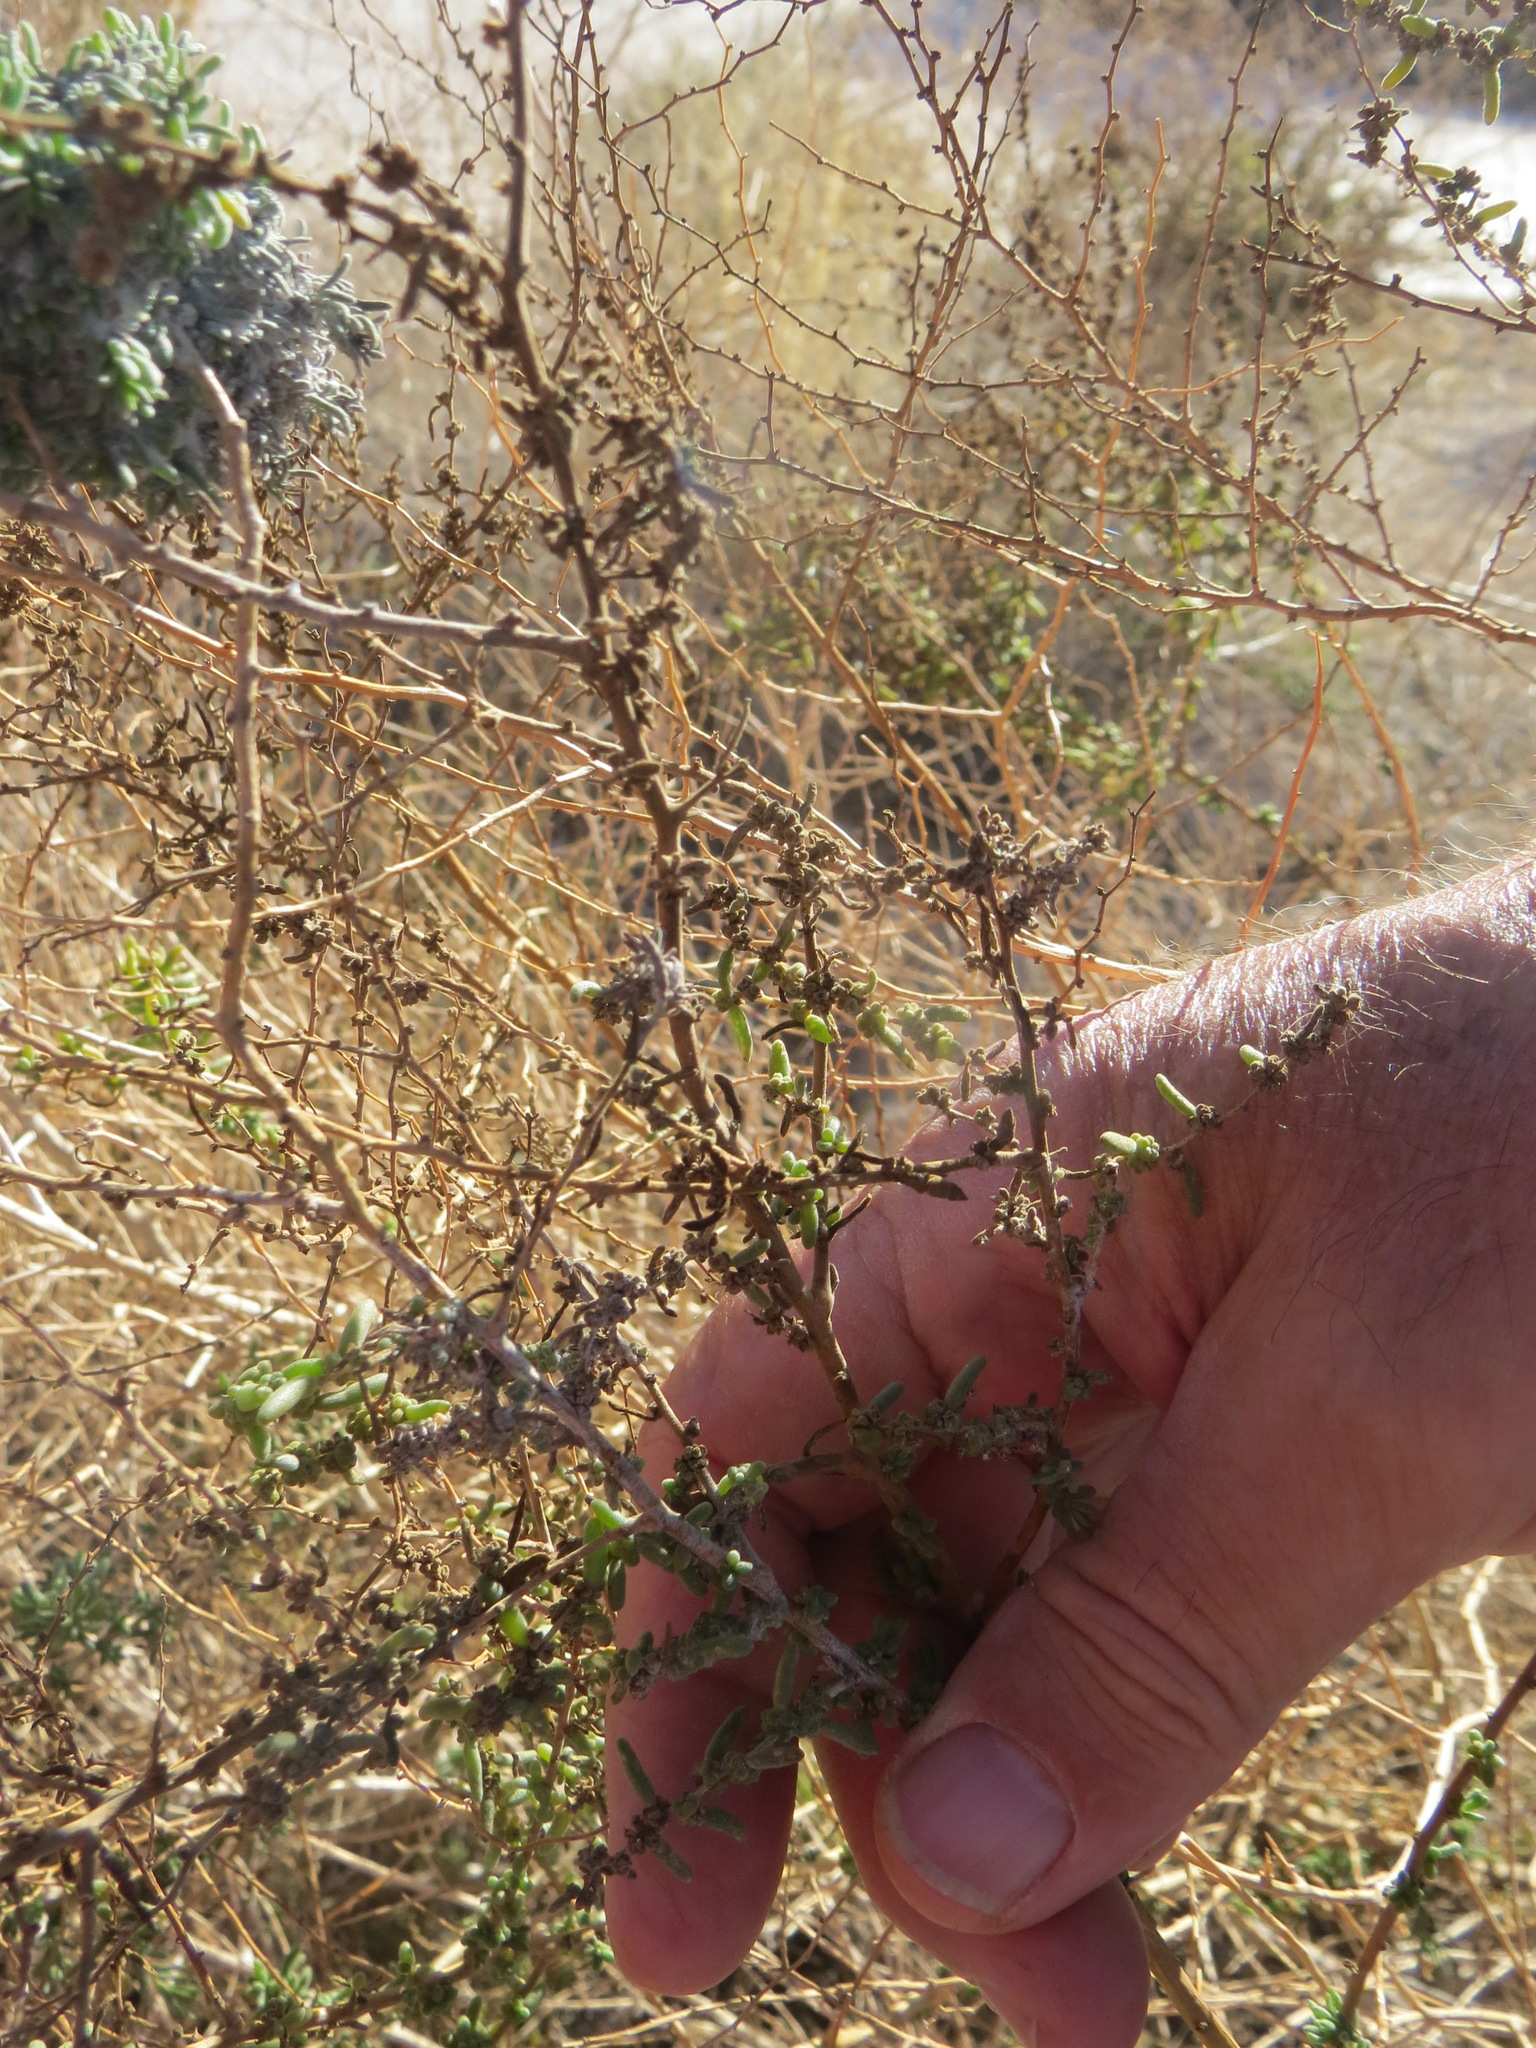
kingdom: Plantae
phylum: Tracheophyta
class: Magnoliopsida
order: Caryophyllales
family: Amaranthaceae
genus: Suaeda
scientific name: Suaeda nigra
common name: Bush seepweed
